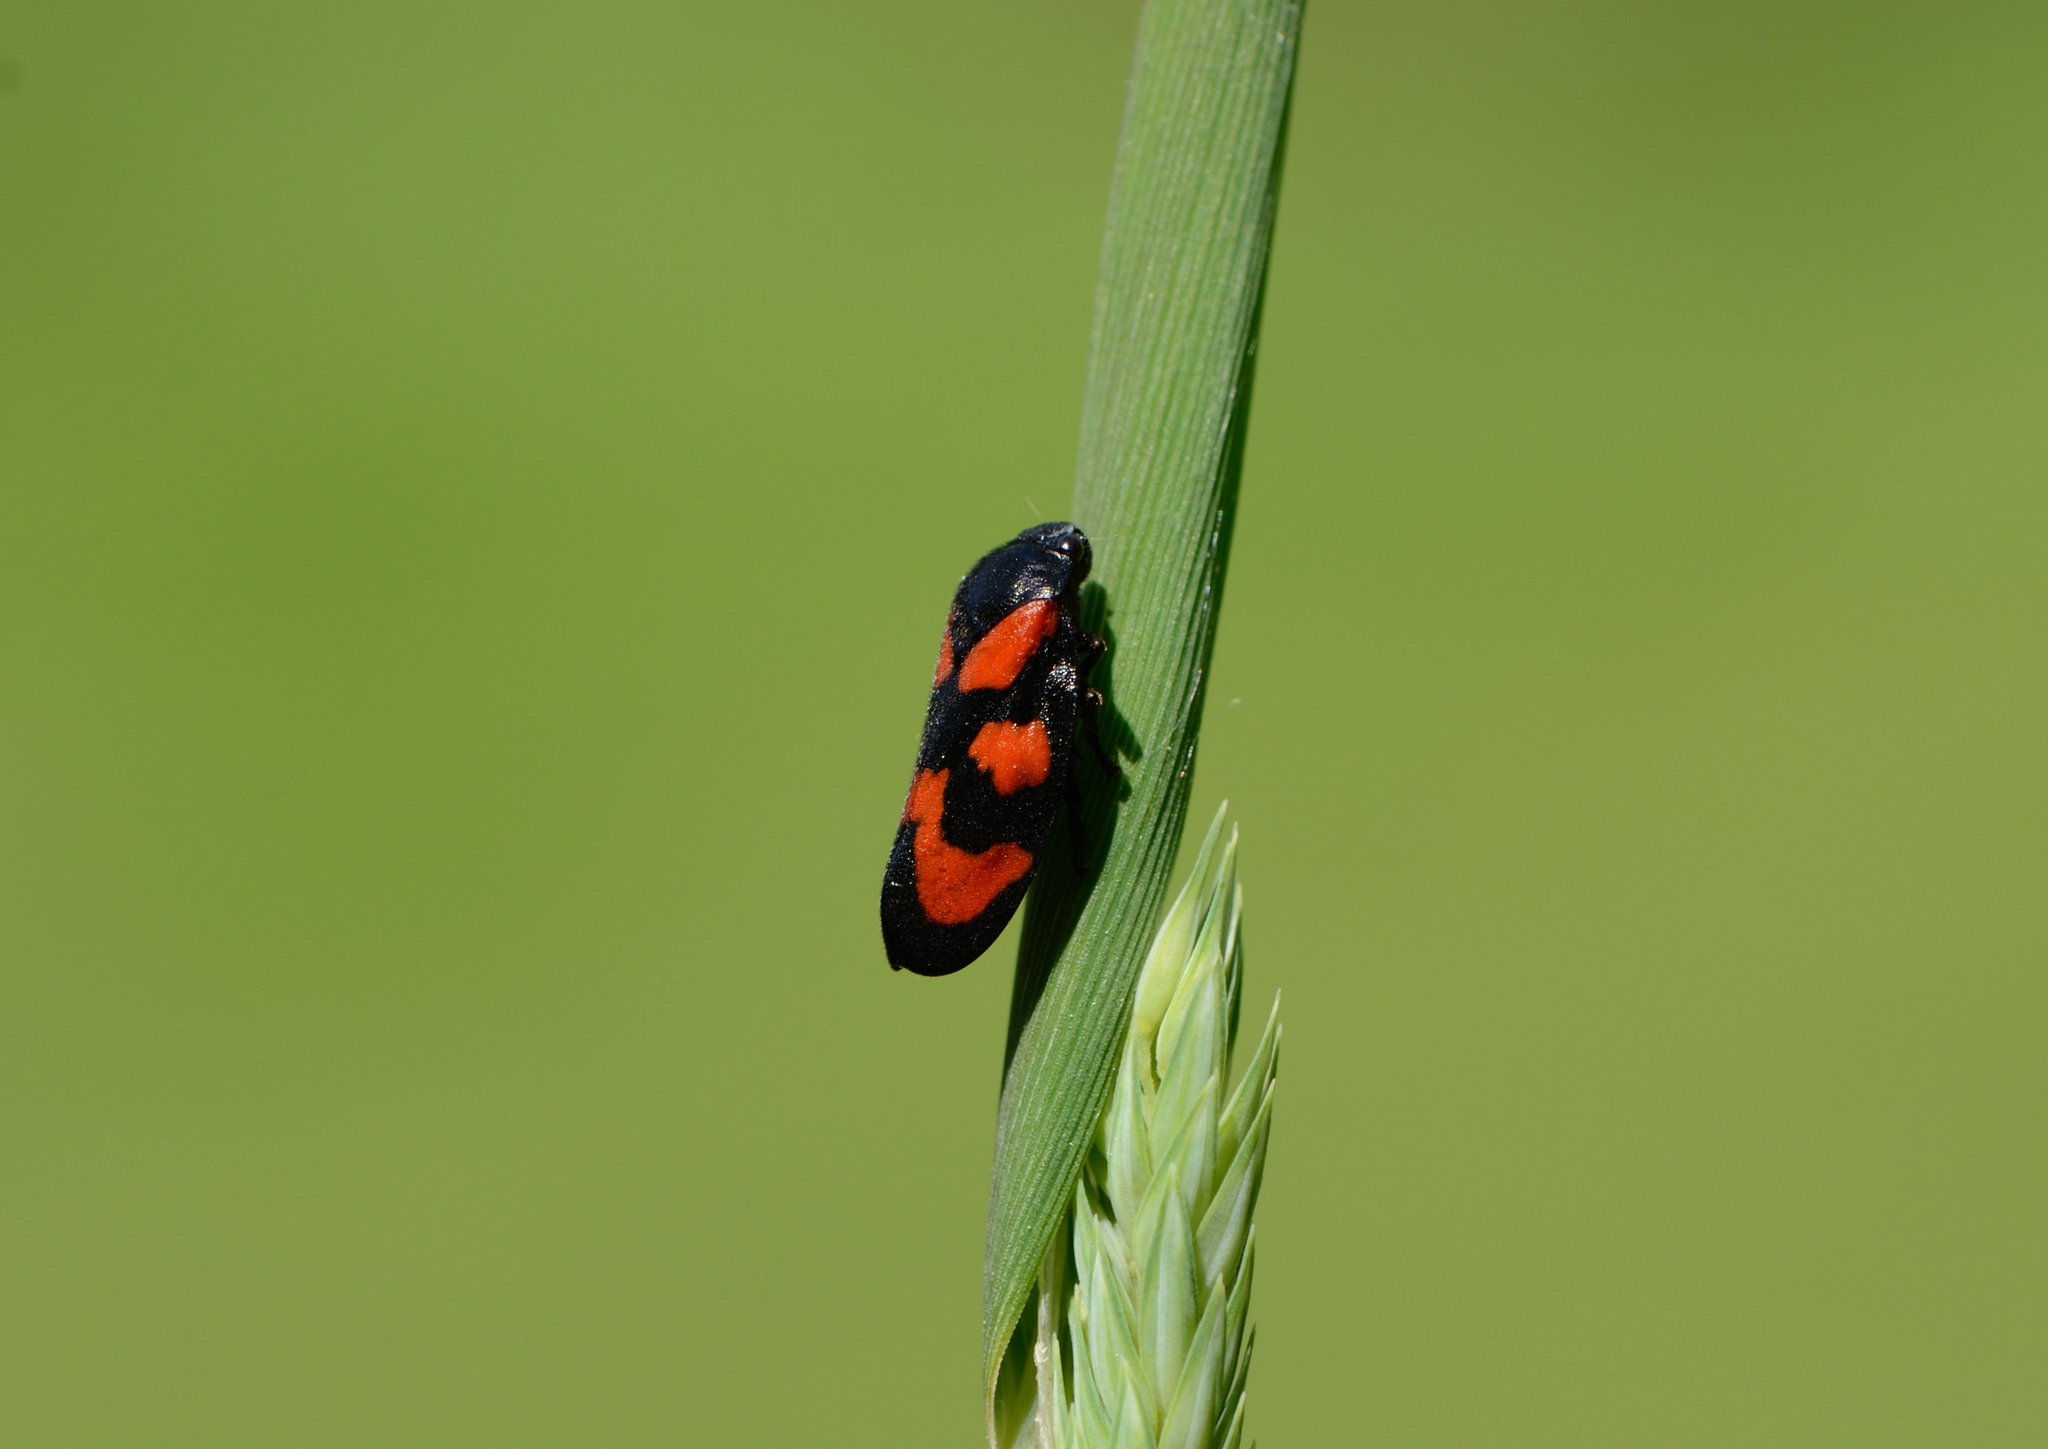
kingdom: Animalia
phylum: Arthropoda
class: Insecta
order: Hemiptera
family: Cercopidae
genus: Cercopis
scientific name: Cercopis vulnerata
